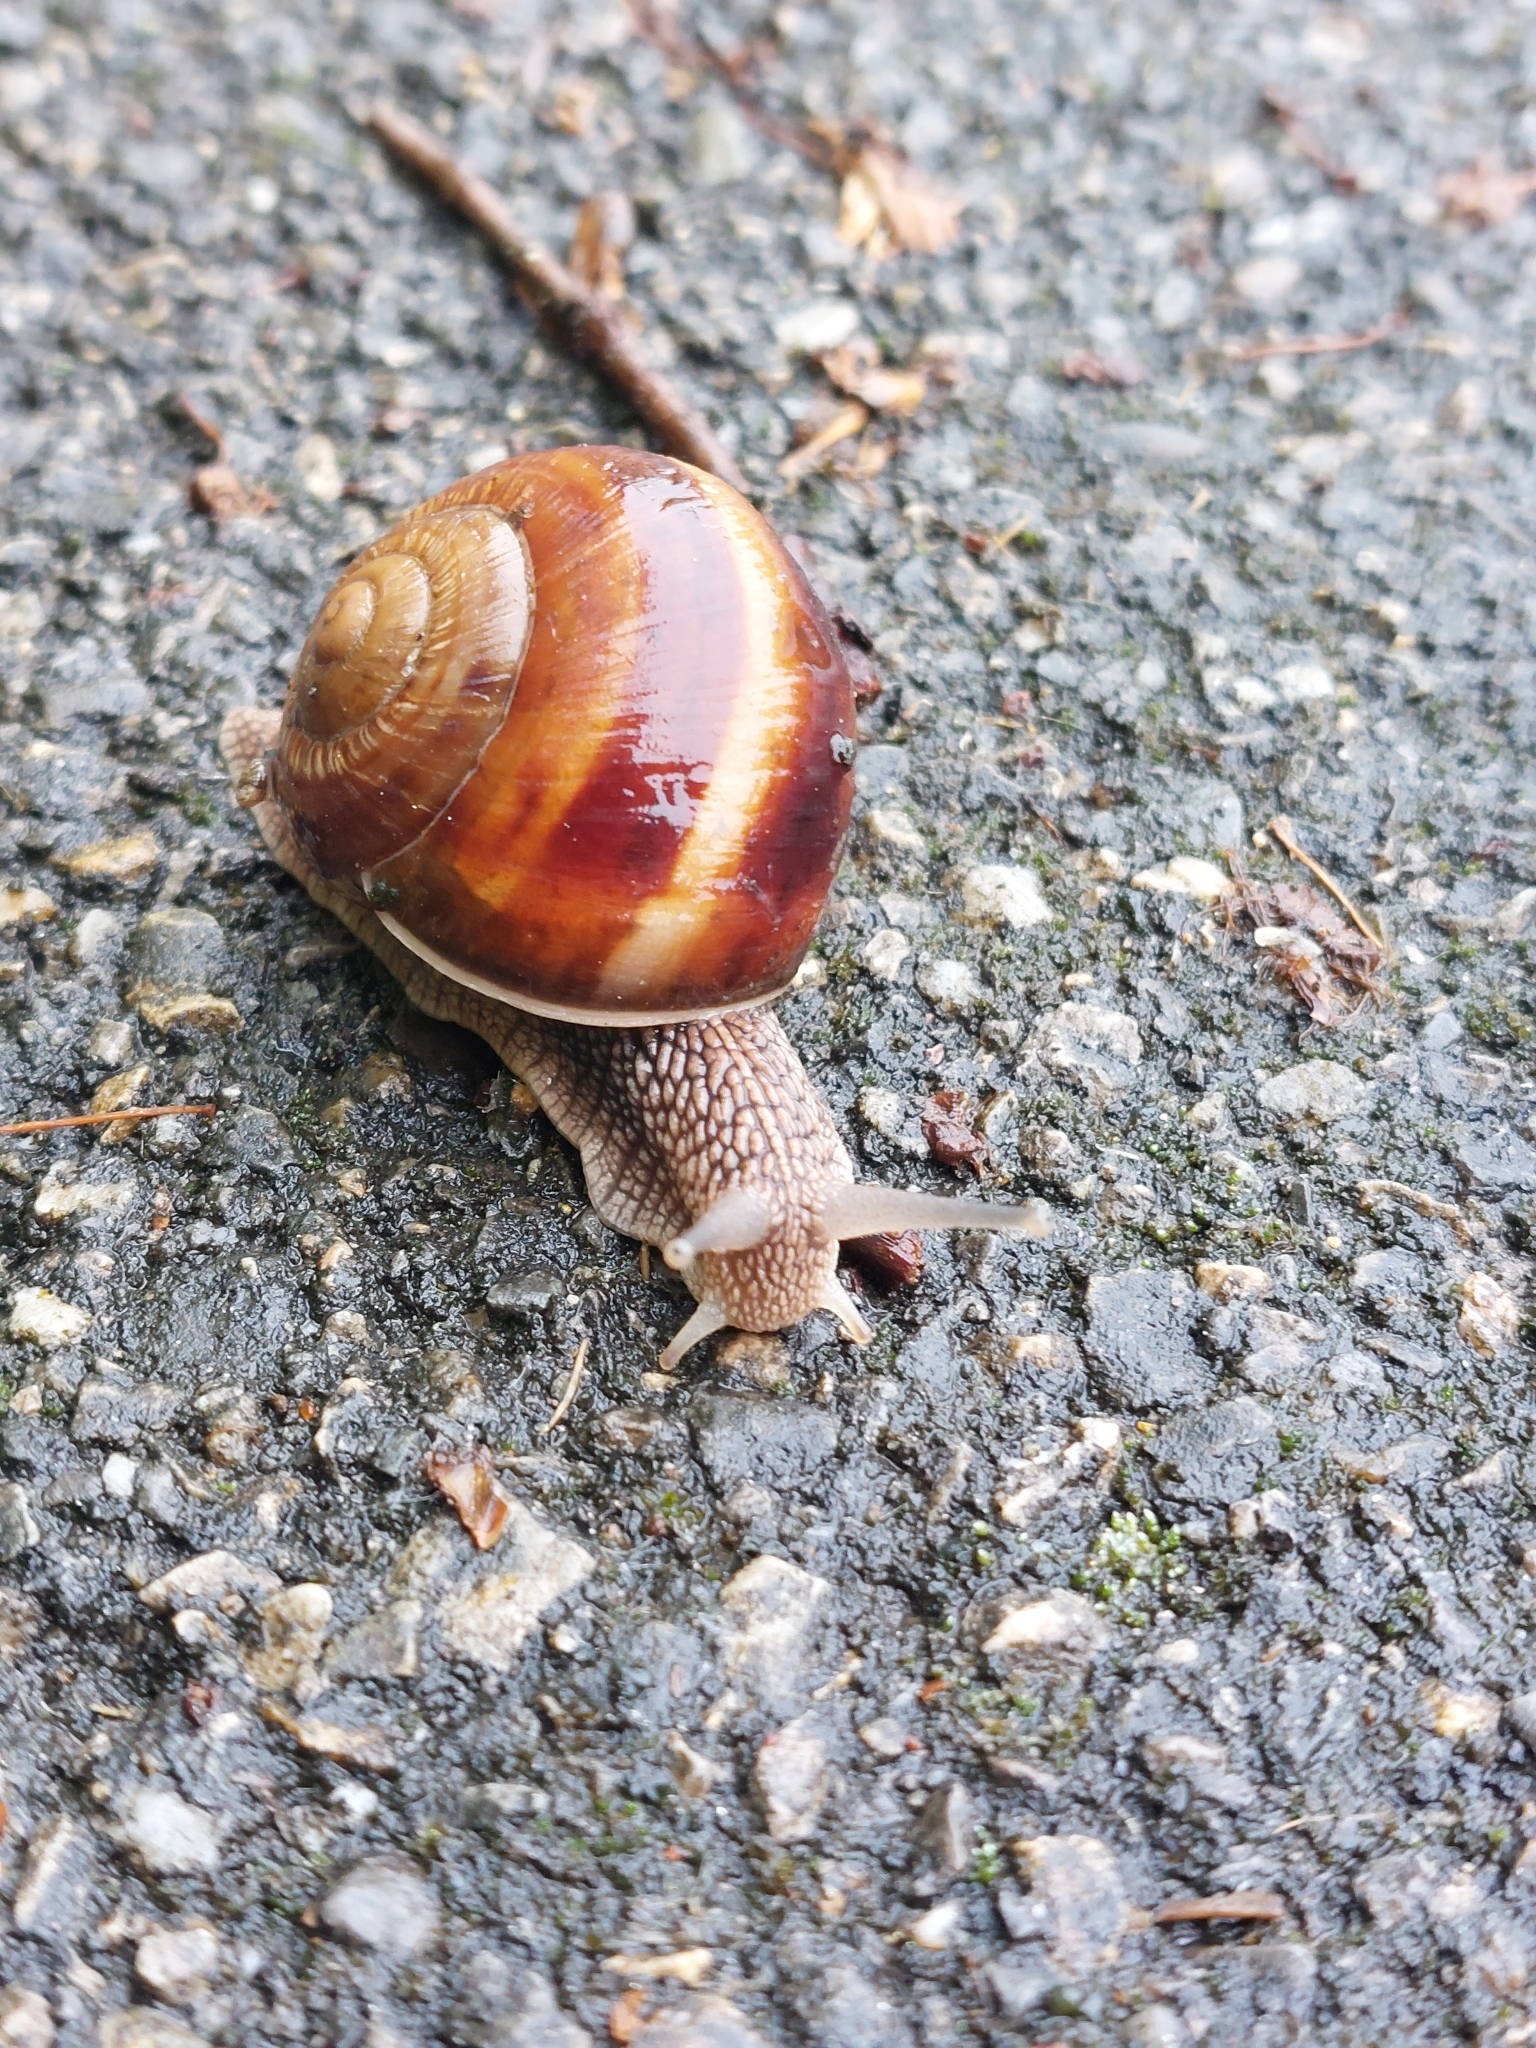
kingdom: Animalia
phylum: Mollusca
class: Gastropoda
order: Stylommatophora
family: Helicidae
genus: Helix
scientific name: Helix lucorum
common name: Turkish snail
